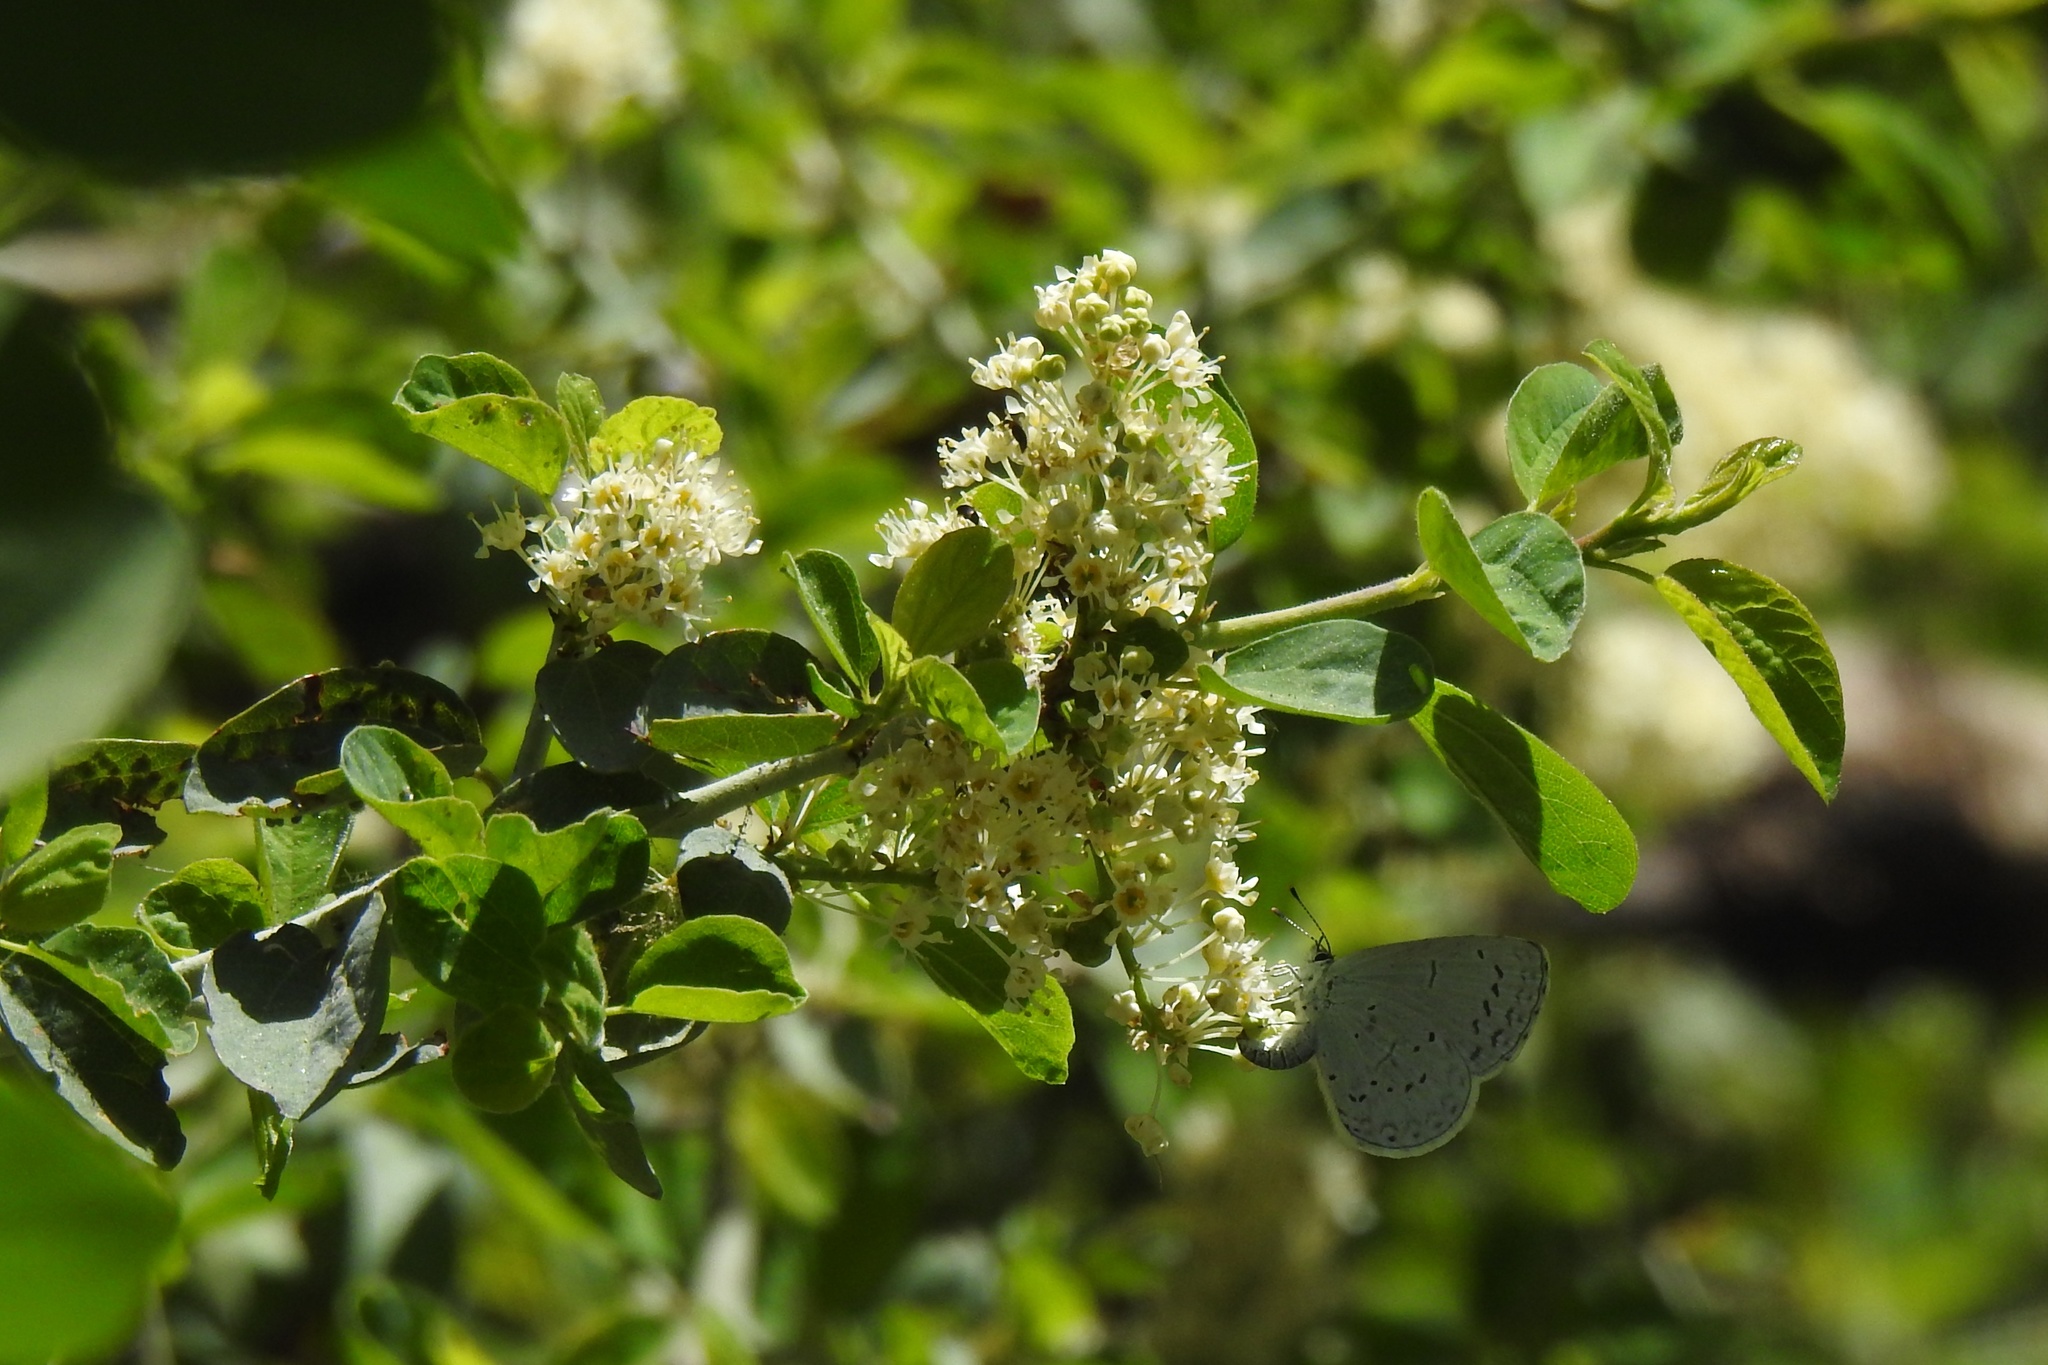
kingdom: Plantae
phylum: Tracheophyta
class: Magnoliopsida
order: Rosales
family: Rhamnaceae
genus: Ceanothus
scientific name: Ceanothus cordulatus
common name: Mountain whitethorn
